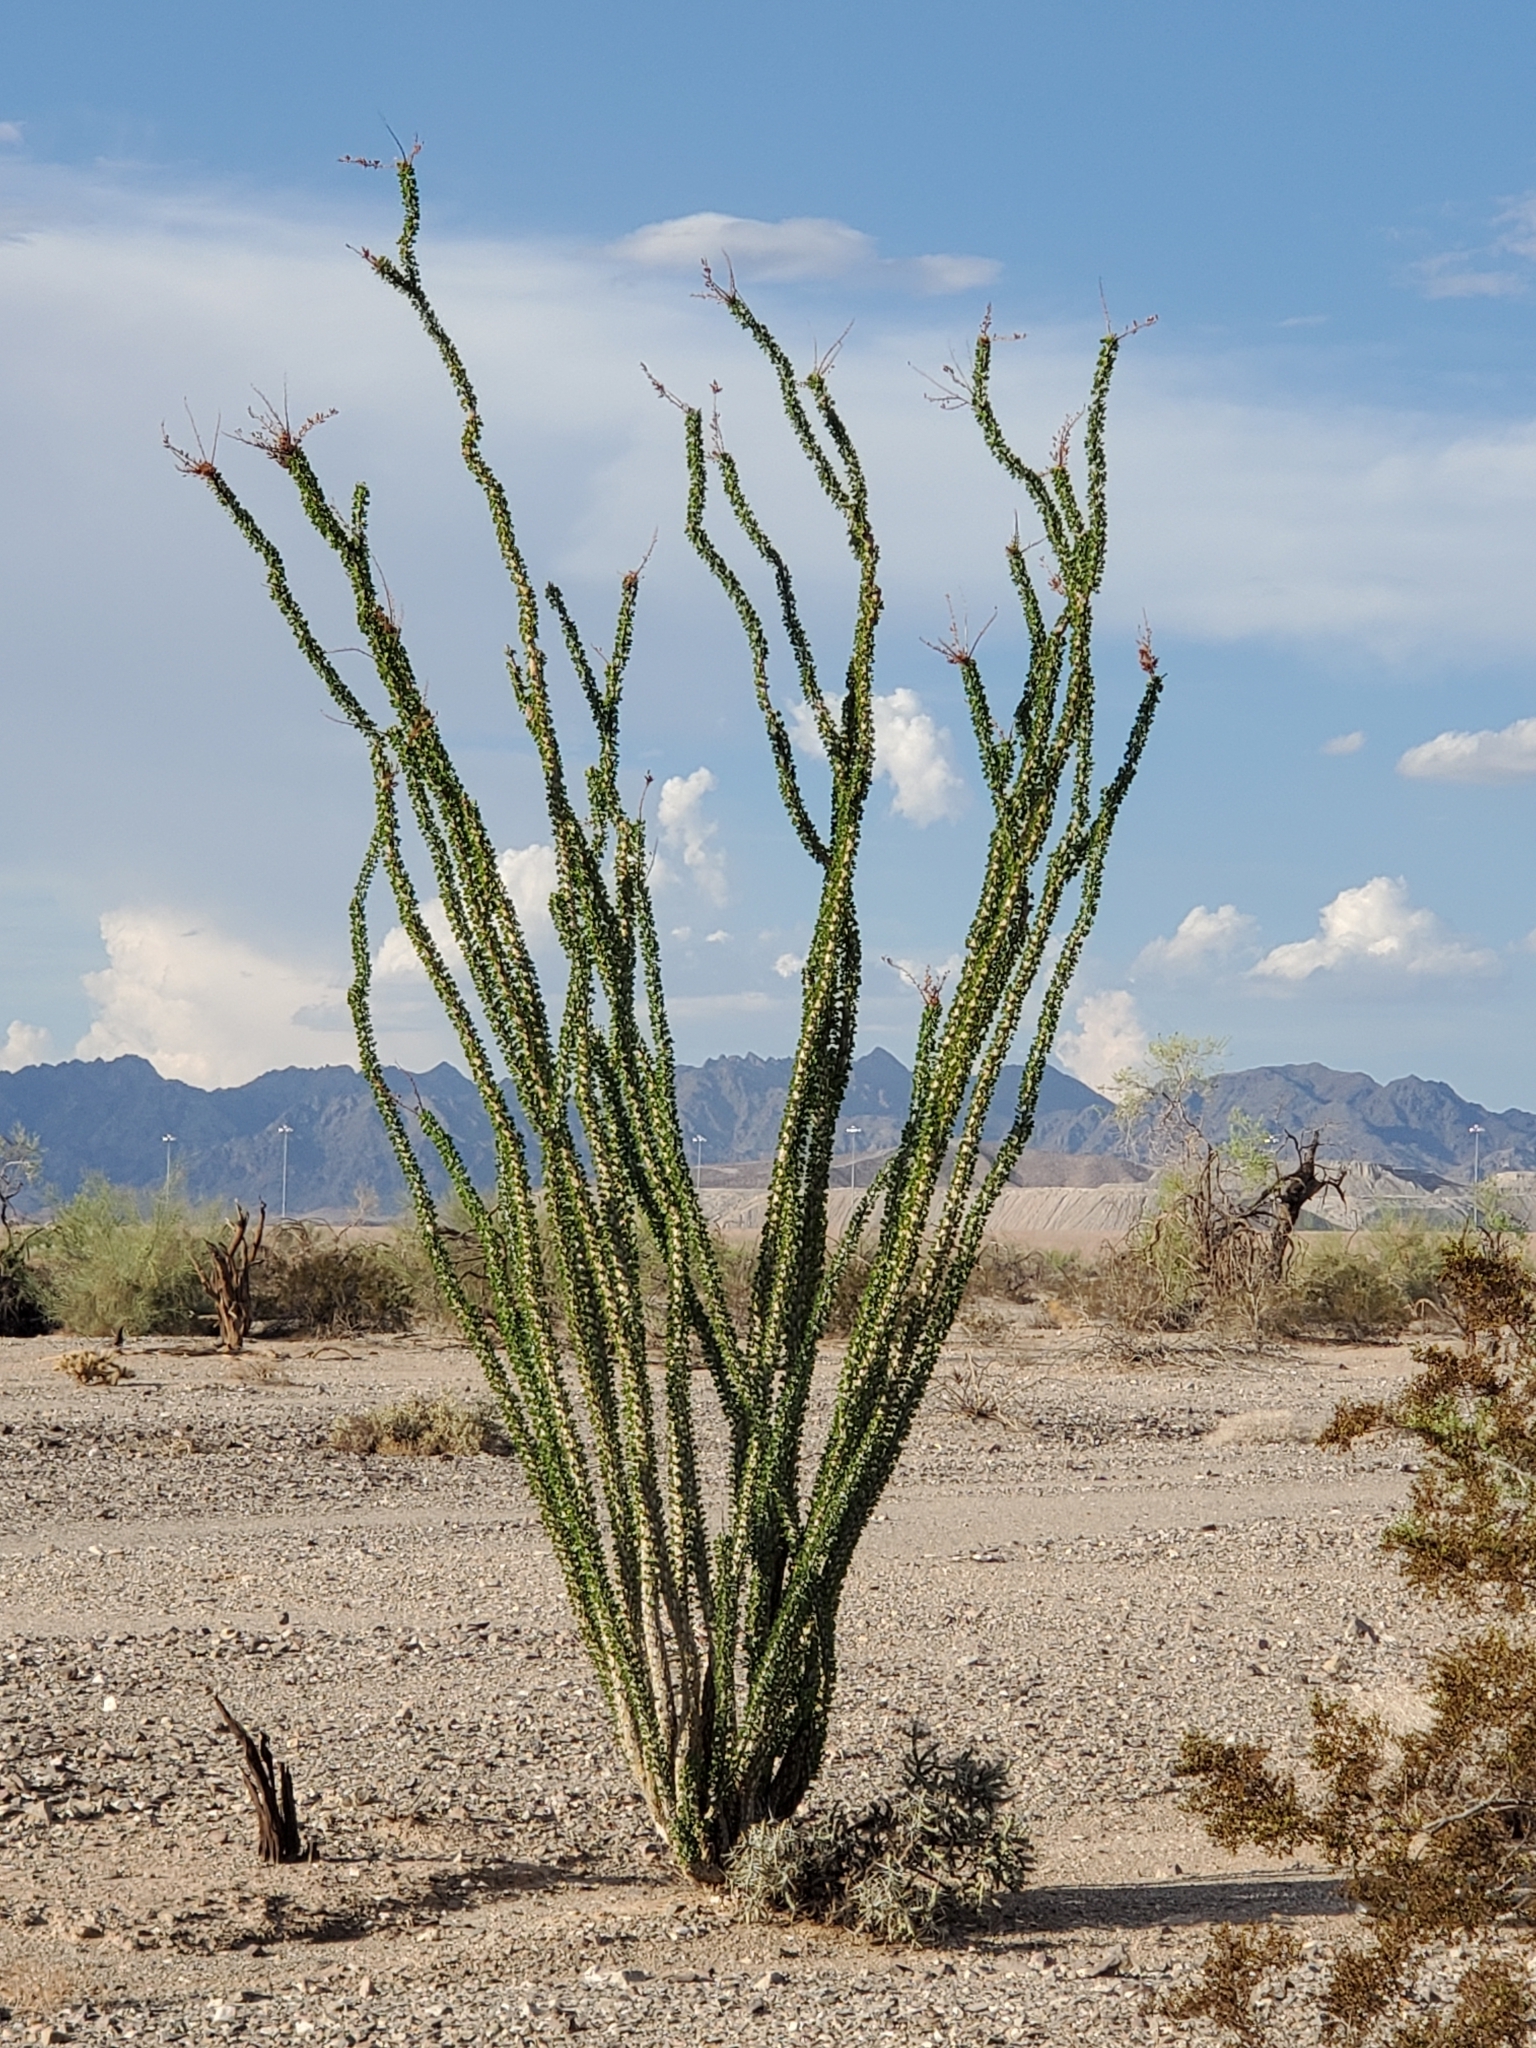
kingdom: Plantae
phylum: Tracheophyta
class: Magnoliopsida
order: Ericales
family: Fouquieriaceae
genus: Fouquieria
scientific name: Fouquieria splendens
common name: Vine-cactus
